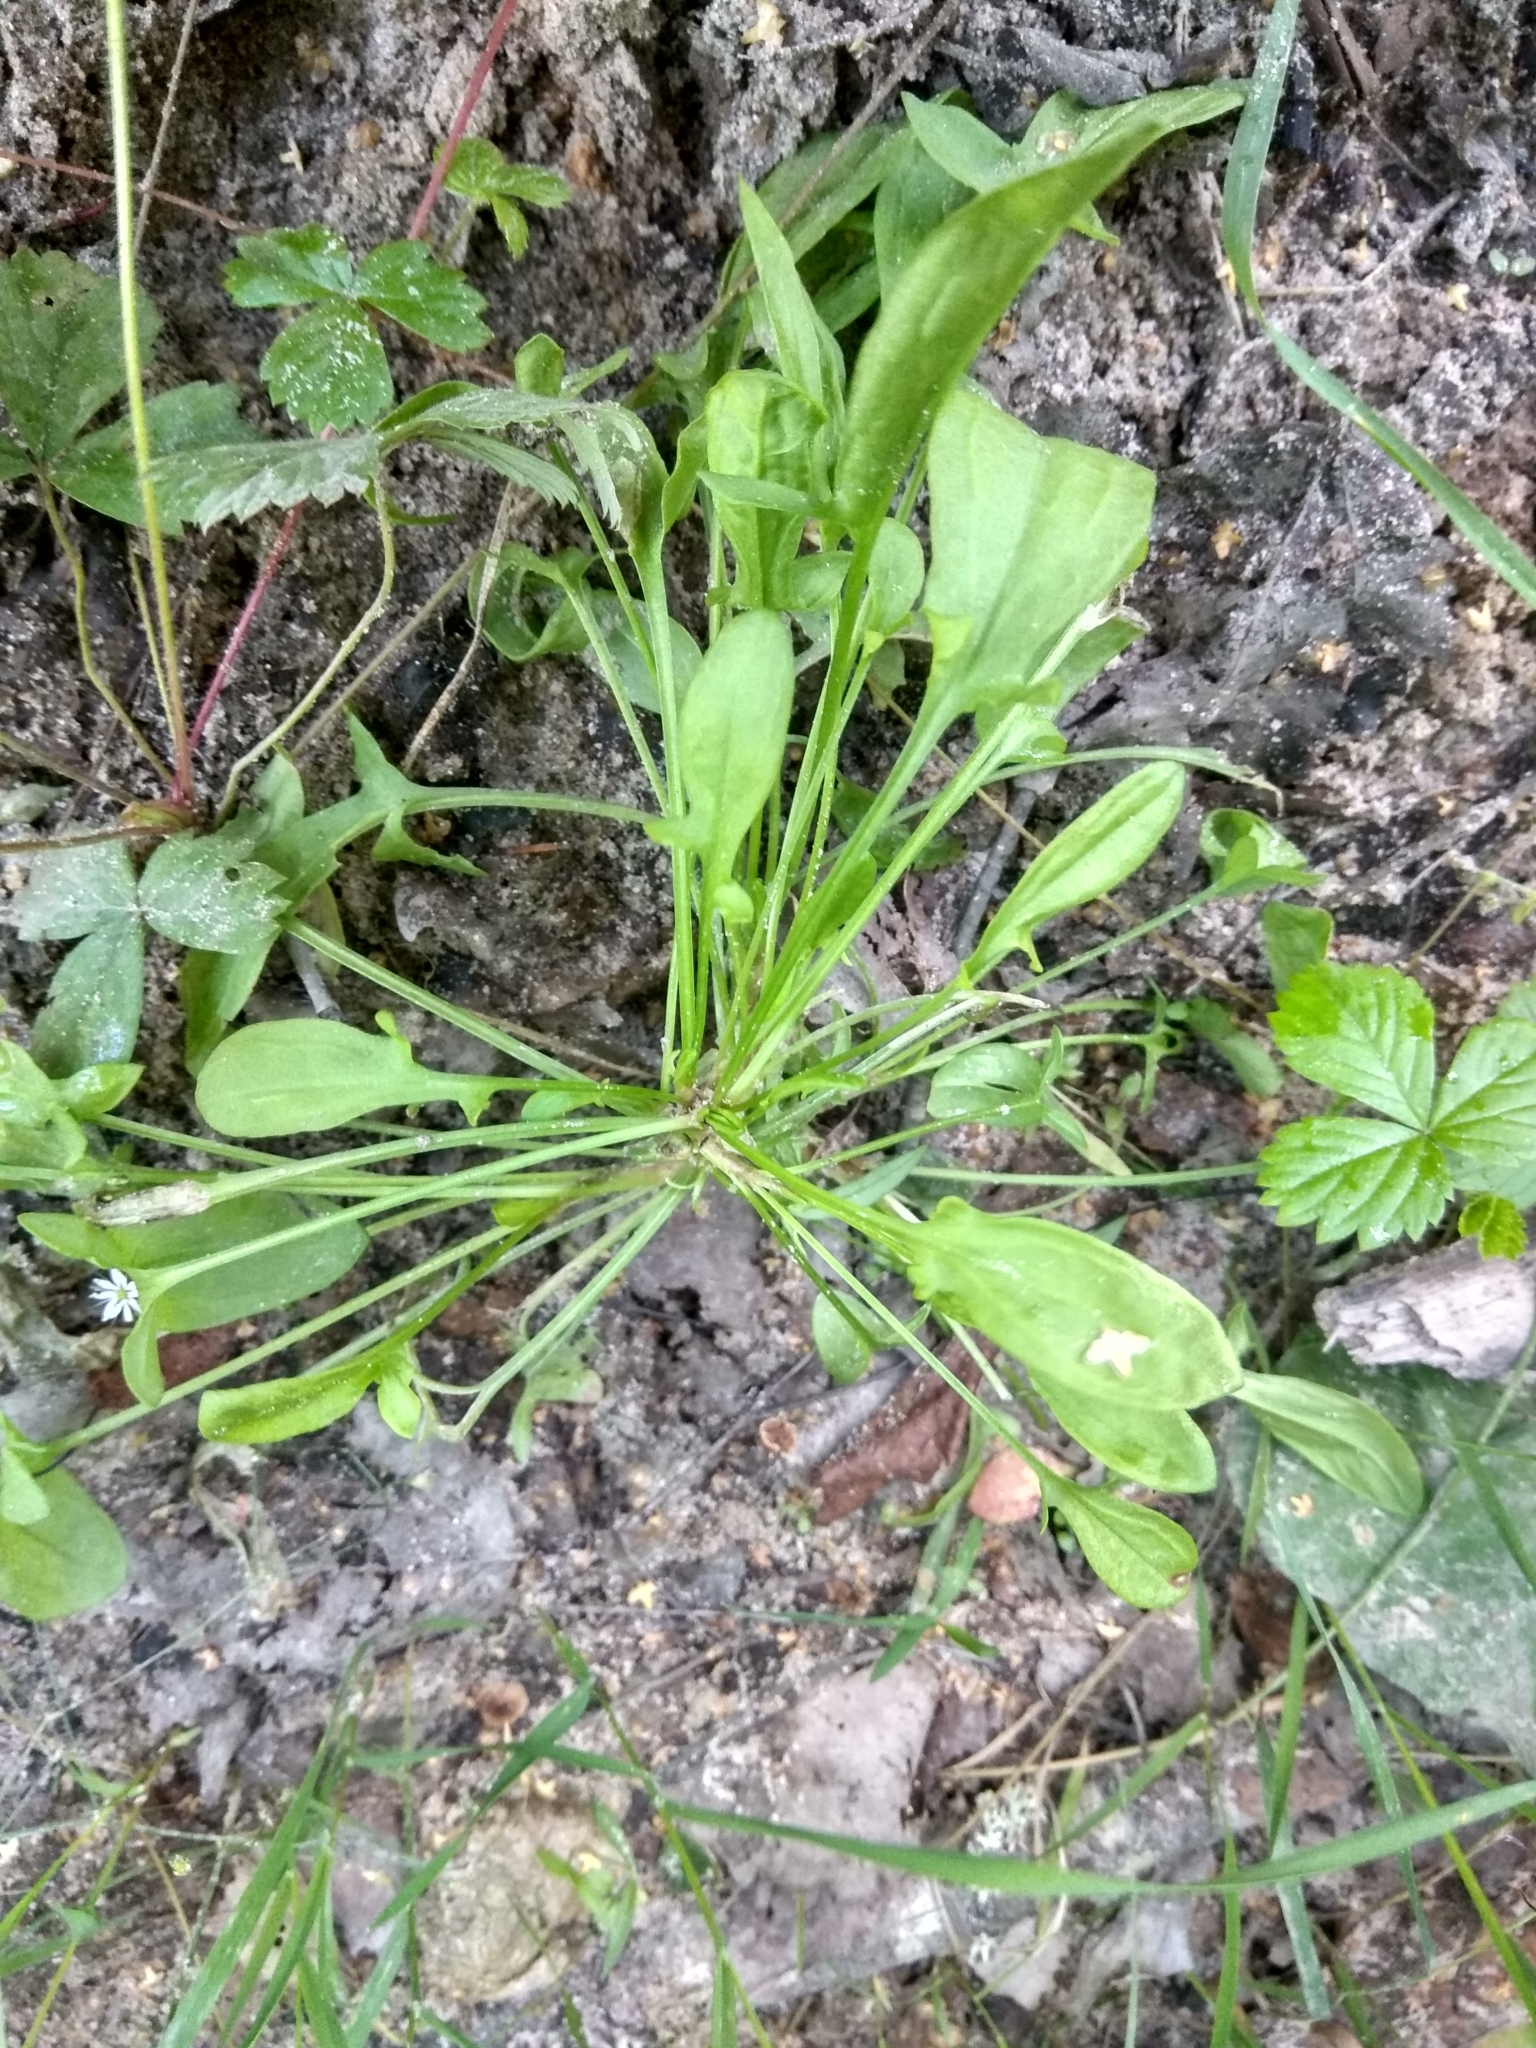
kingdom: Plantae
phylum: Tracheophyta
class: Magnoliopsida
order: Caryophyllales
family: Polygonaceae
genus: Rumex
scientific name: Rumex acetosella
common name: Common sheep sorrel
